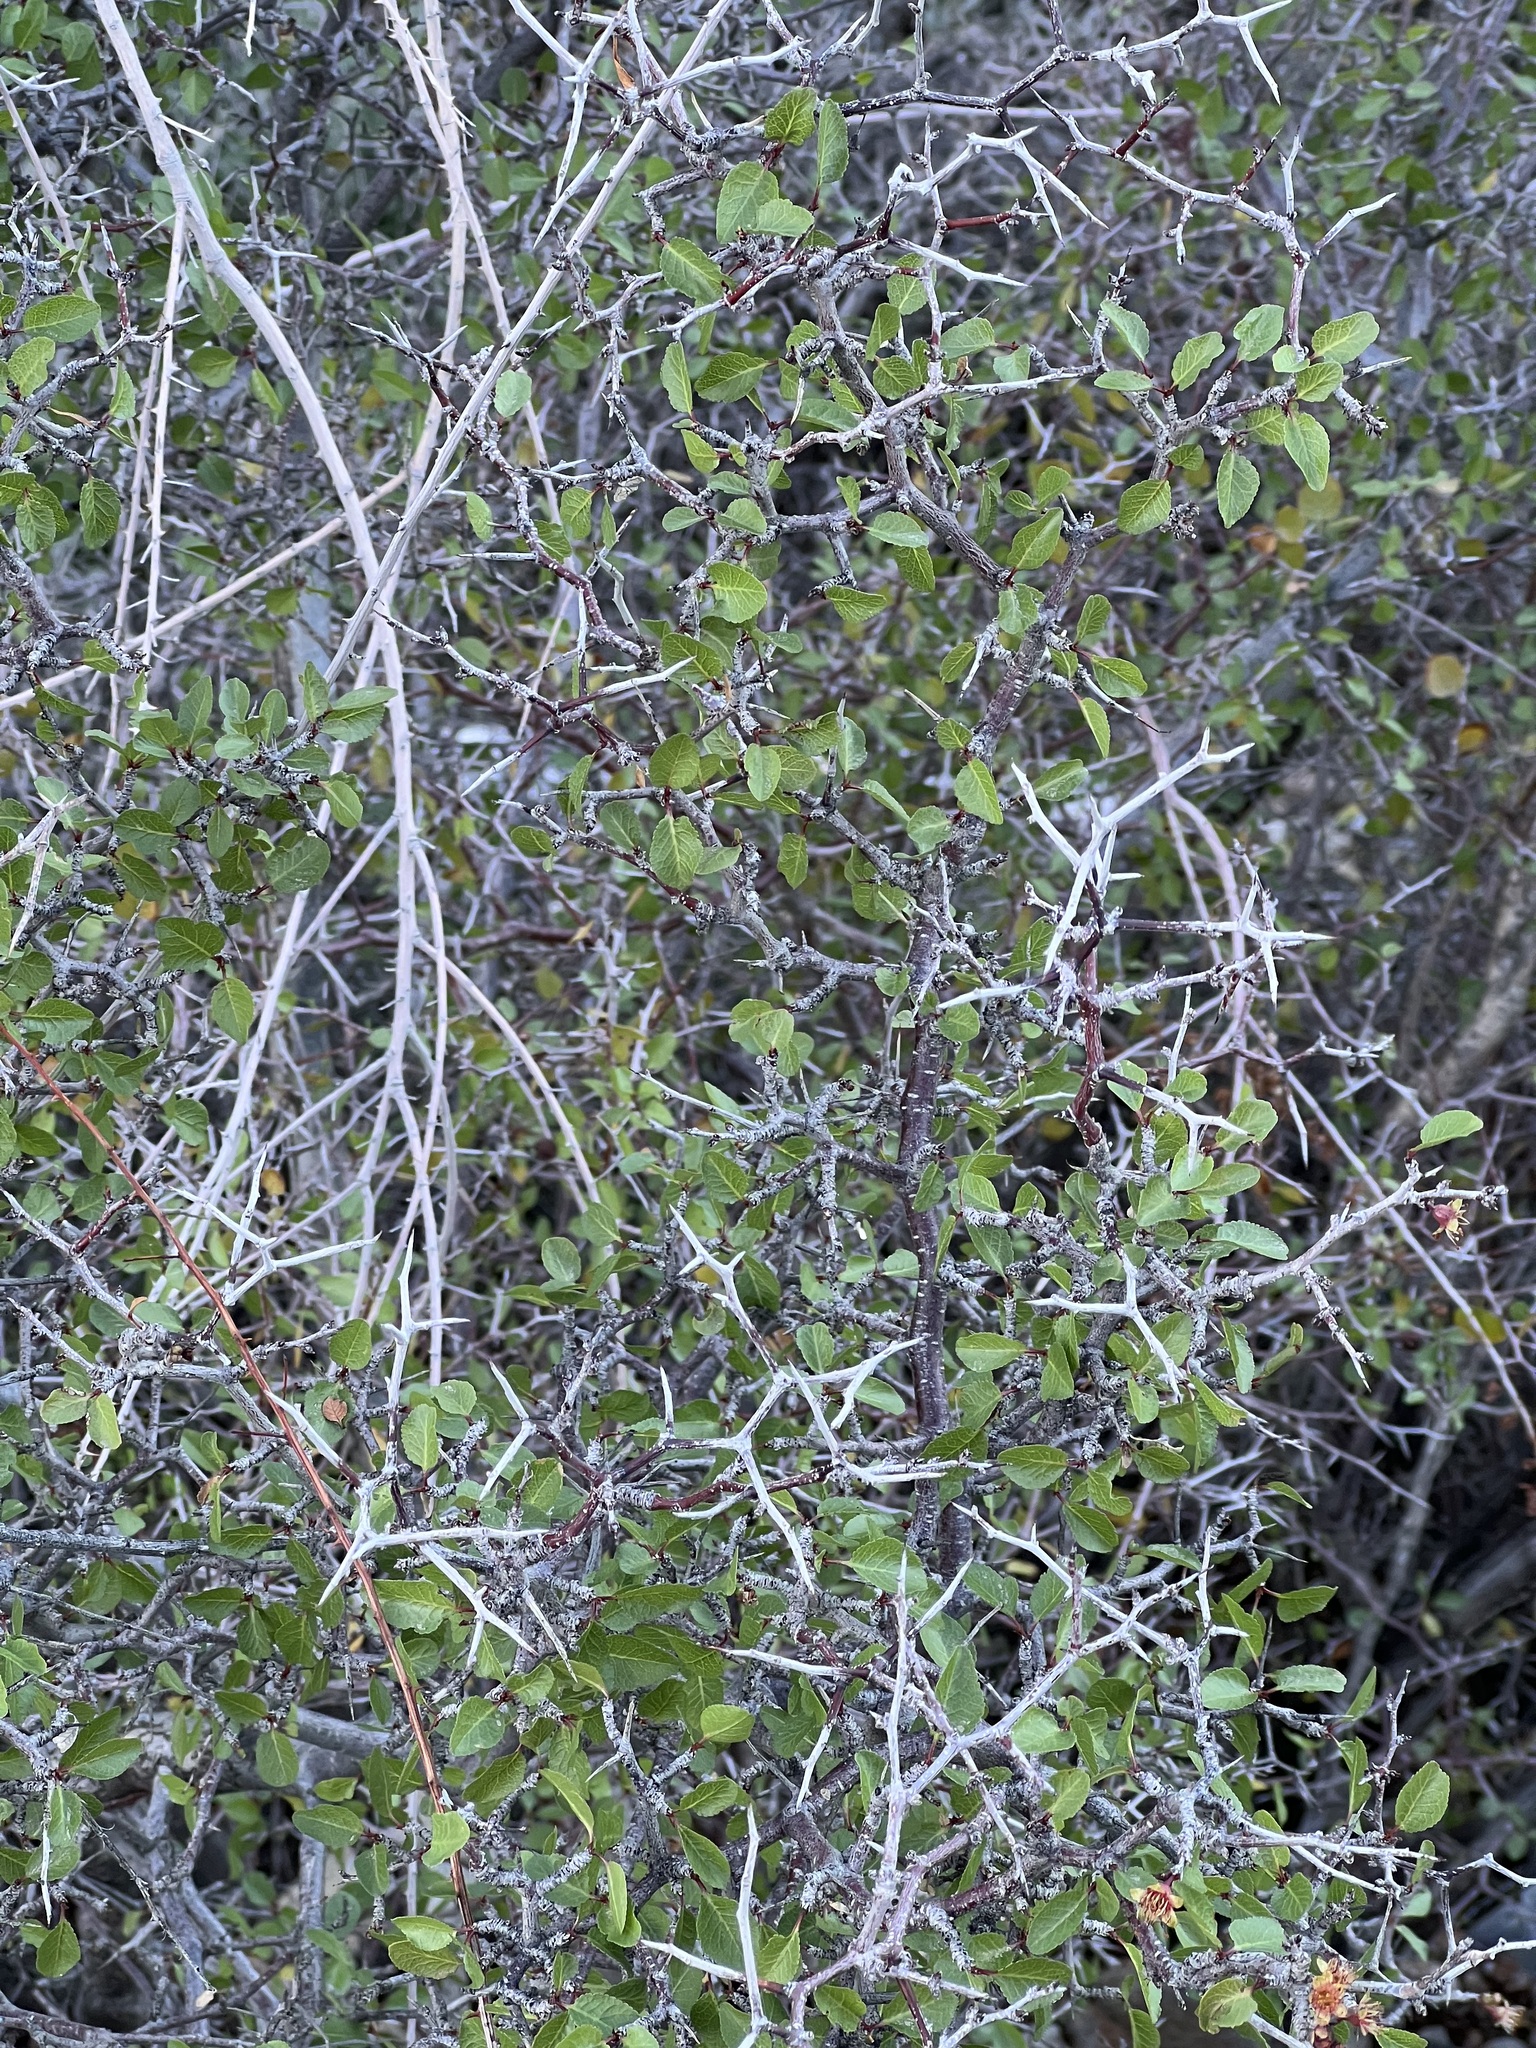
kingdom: Plantae
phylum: Tracheophyta
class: Magnoliopsida
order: Rosales
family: Rosaceae
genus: Prunus
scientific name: Prunus fremontii
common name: Desert apricot
